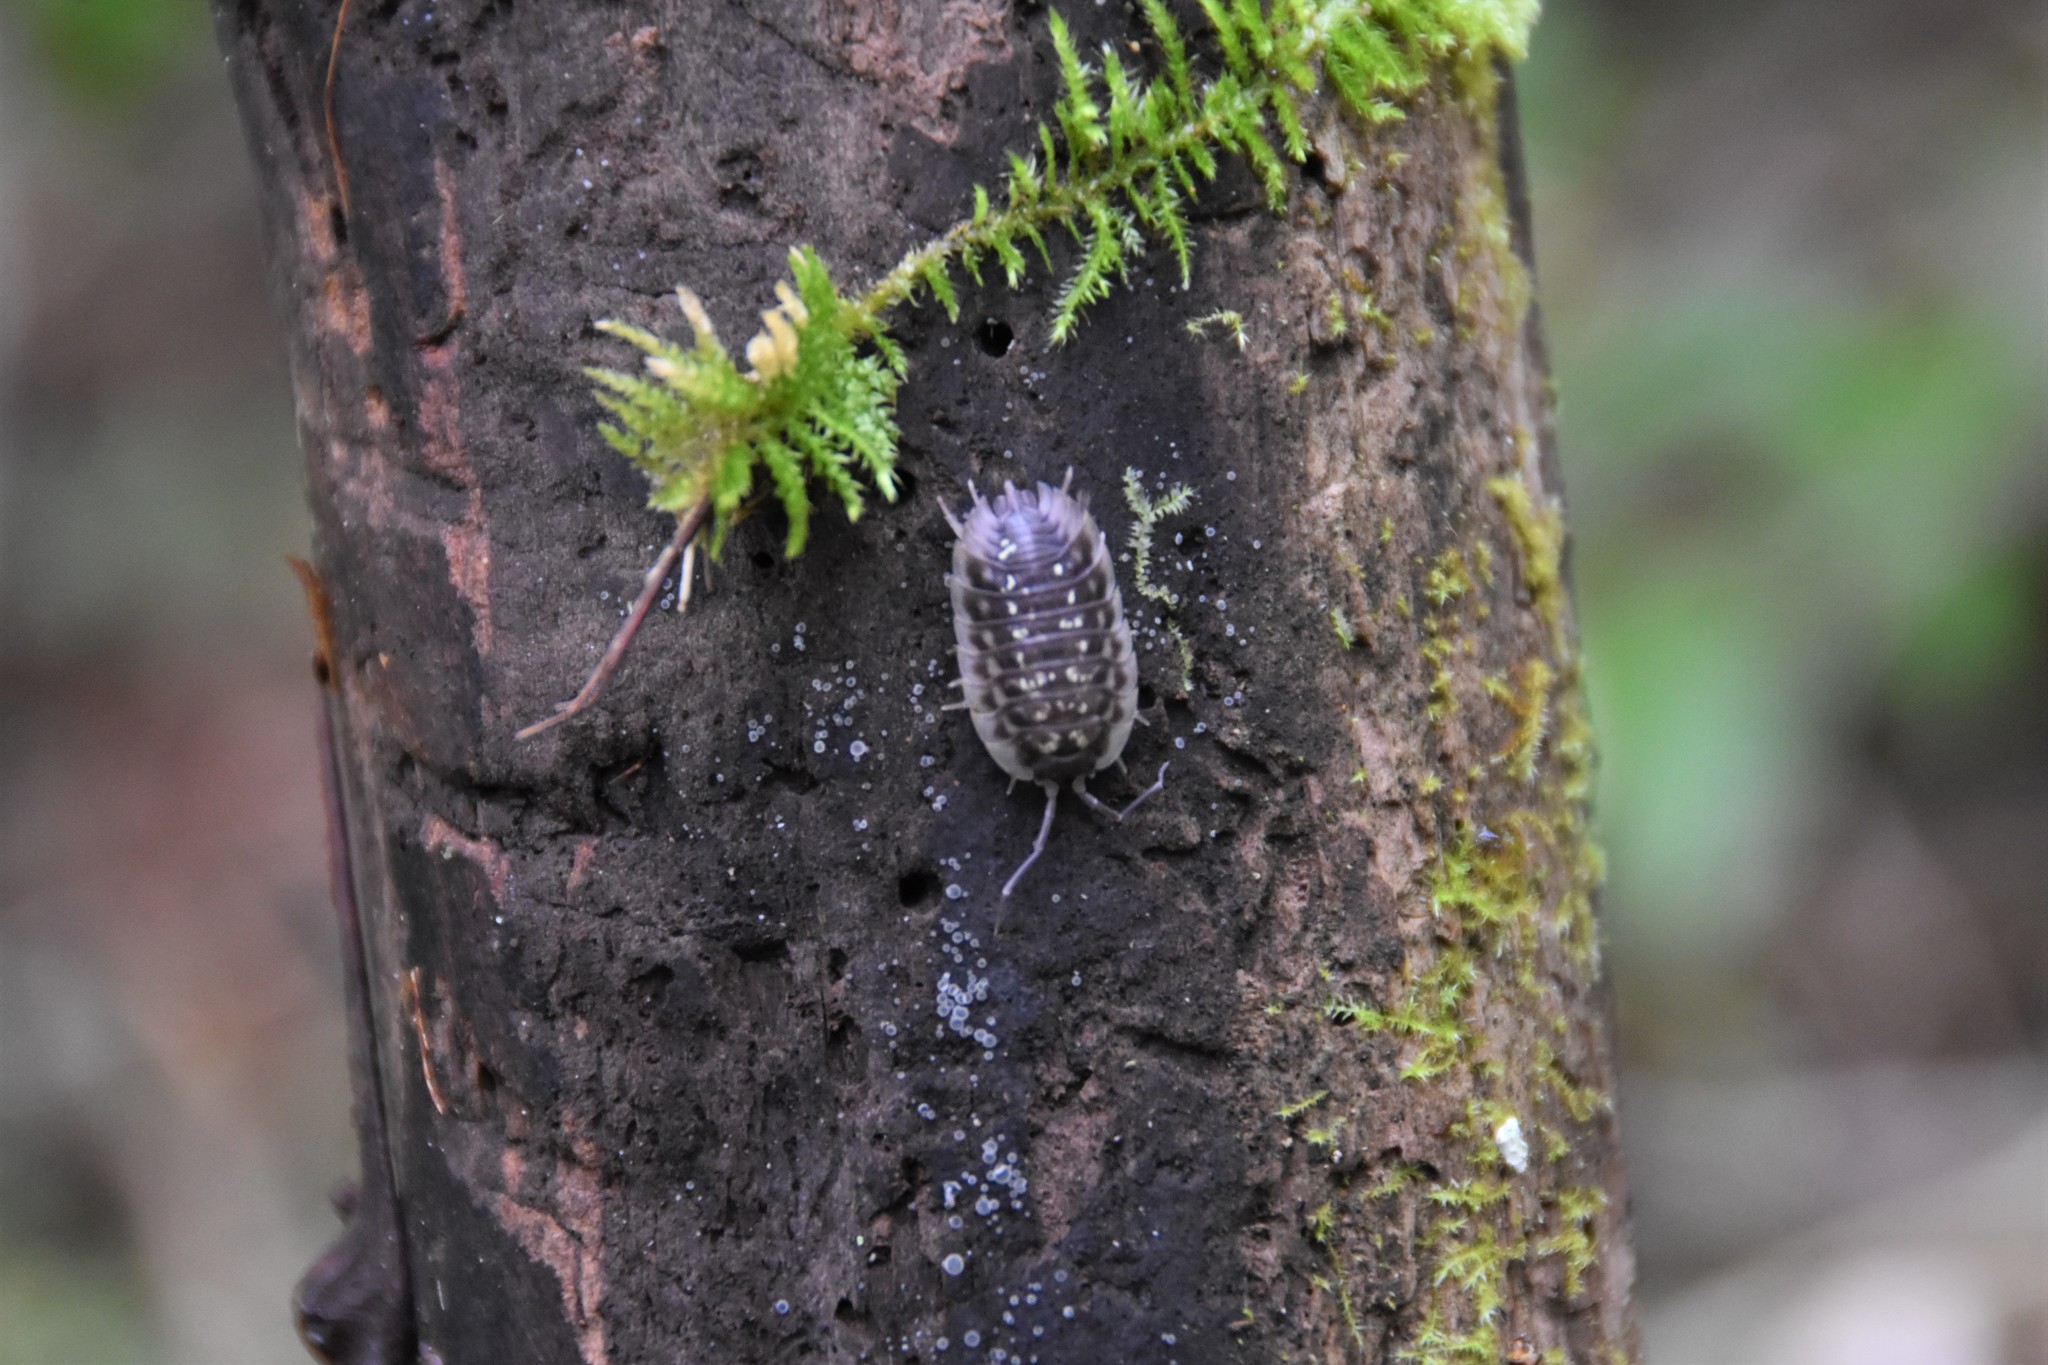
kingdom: Animalia
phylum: Arthropoda
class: Malacostraca
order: Isopoda
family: Oniscidae
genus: Oniscus
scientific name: Oniscus asellus
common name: Common shiny woodlouse
